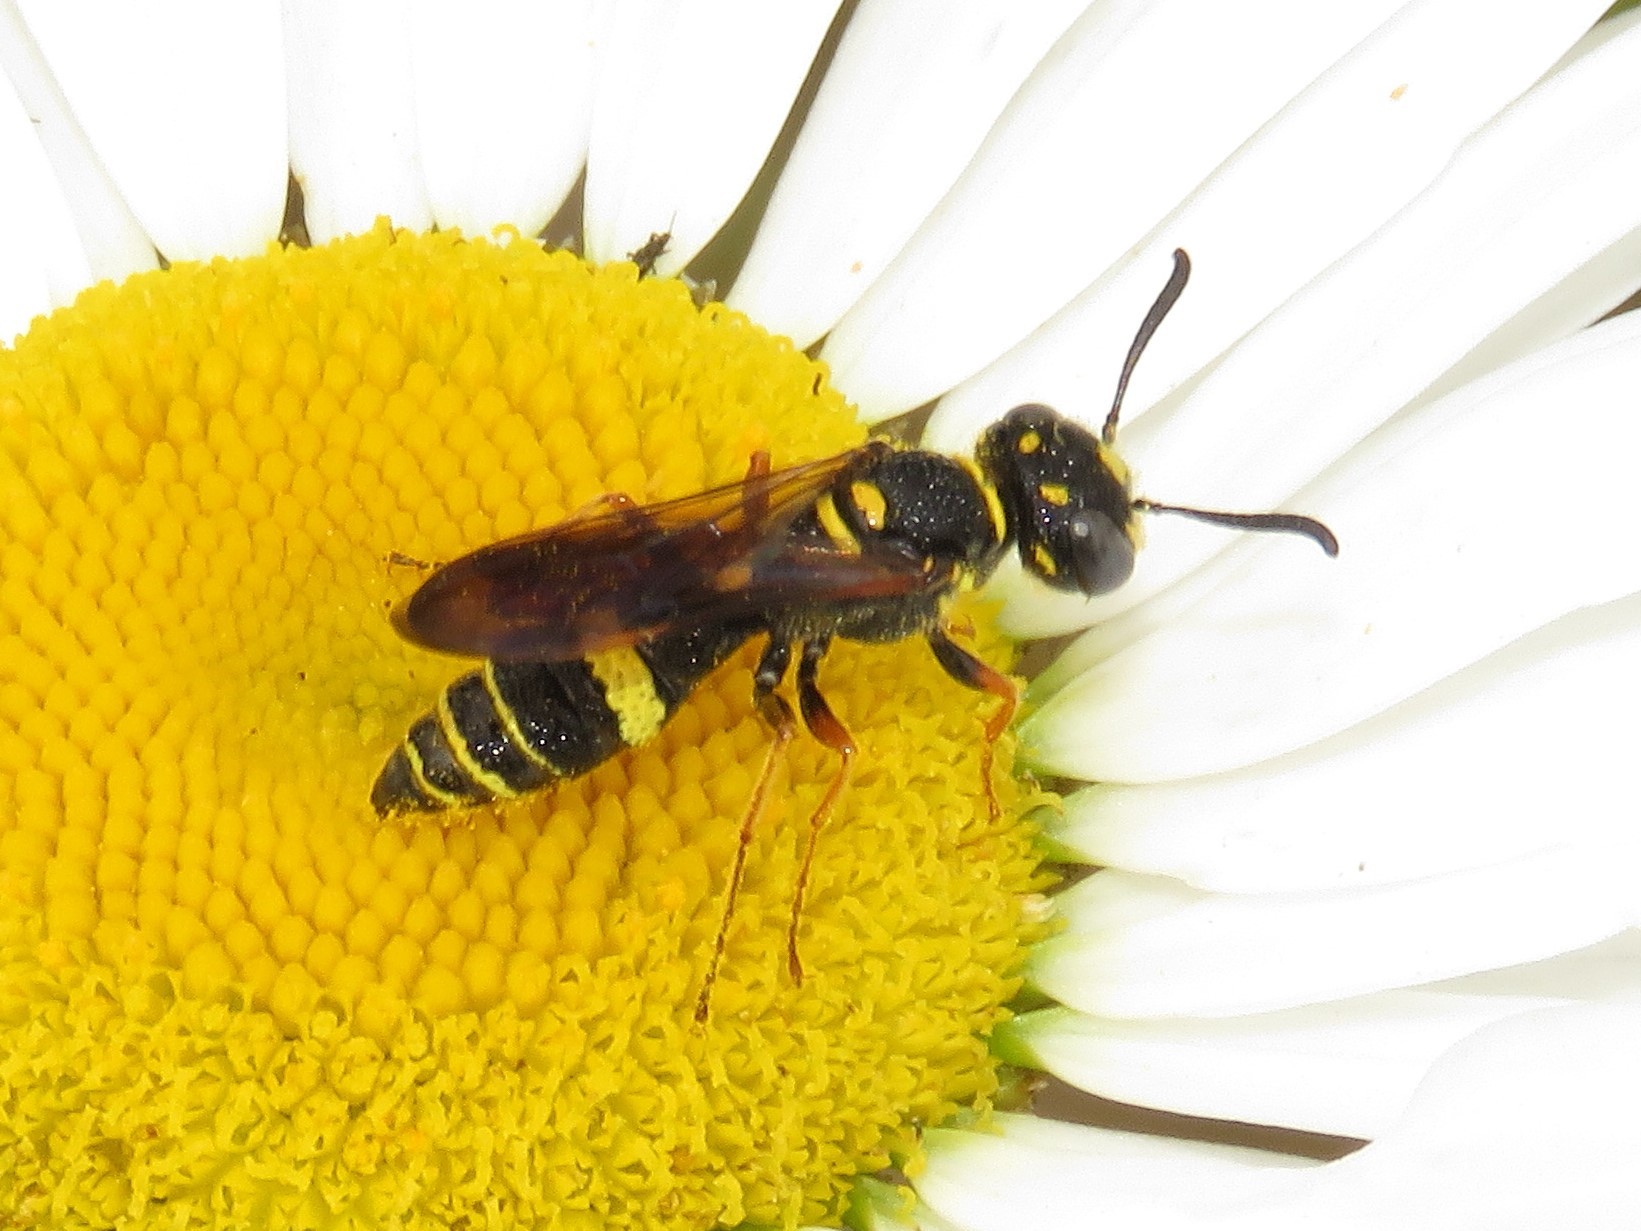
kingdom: Animalia
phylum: Arthropoda
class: Insecta
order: Hymenoptera
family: Crabronidae
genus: Philanthus
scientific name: Philanthus gibbosus
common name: Humped beewolf
